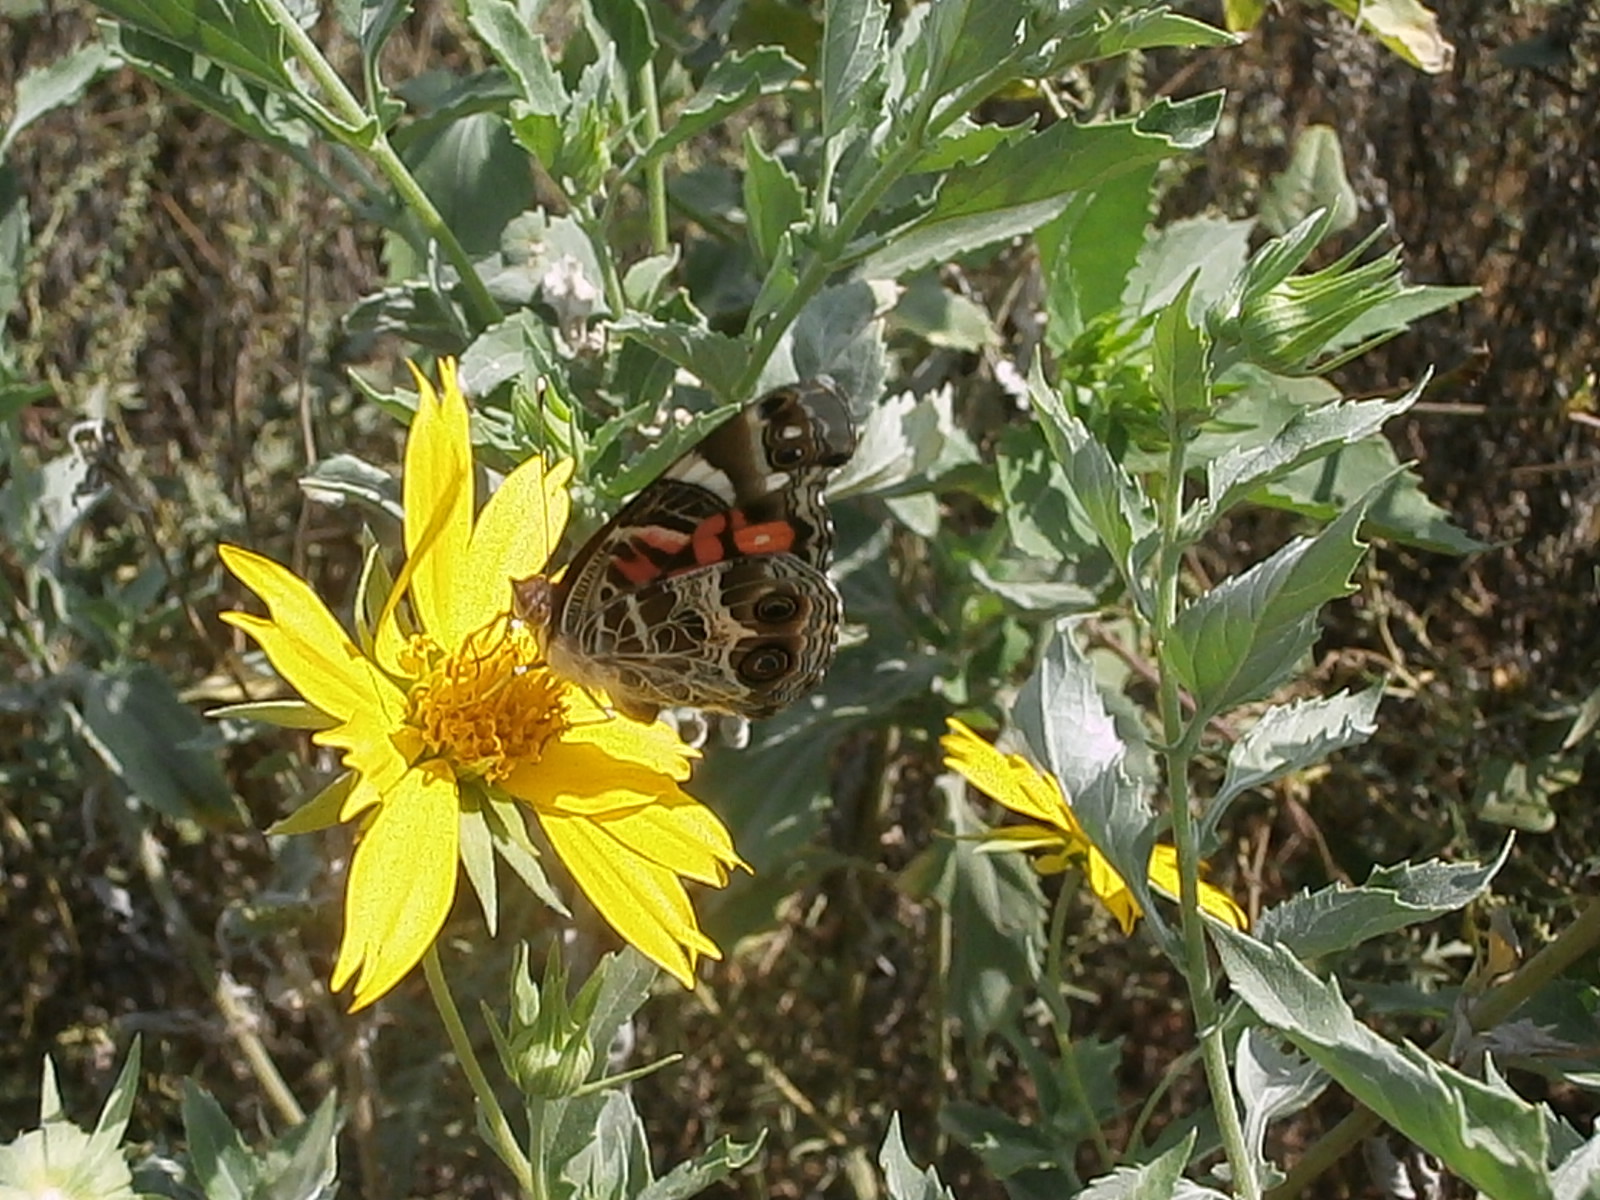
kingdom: Animalia
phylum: Arthropoda
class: Insecta
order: Lepidoptera
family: Nymphalidae
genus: Vanessa
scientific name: Vanessa virginiensis
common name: American lady
